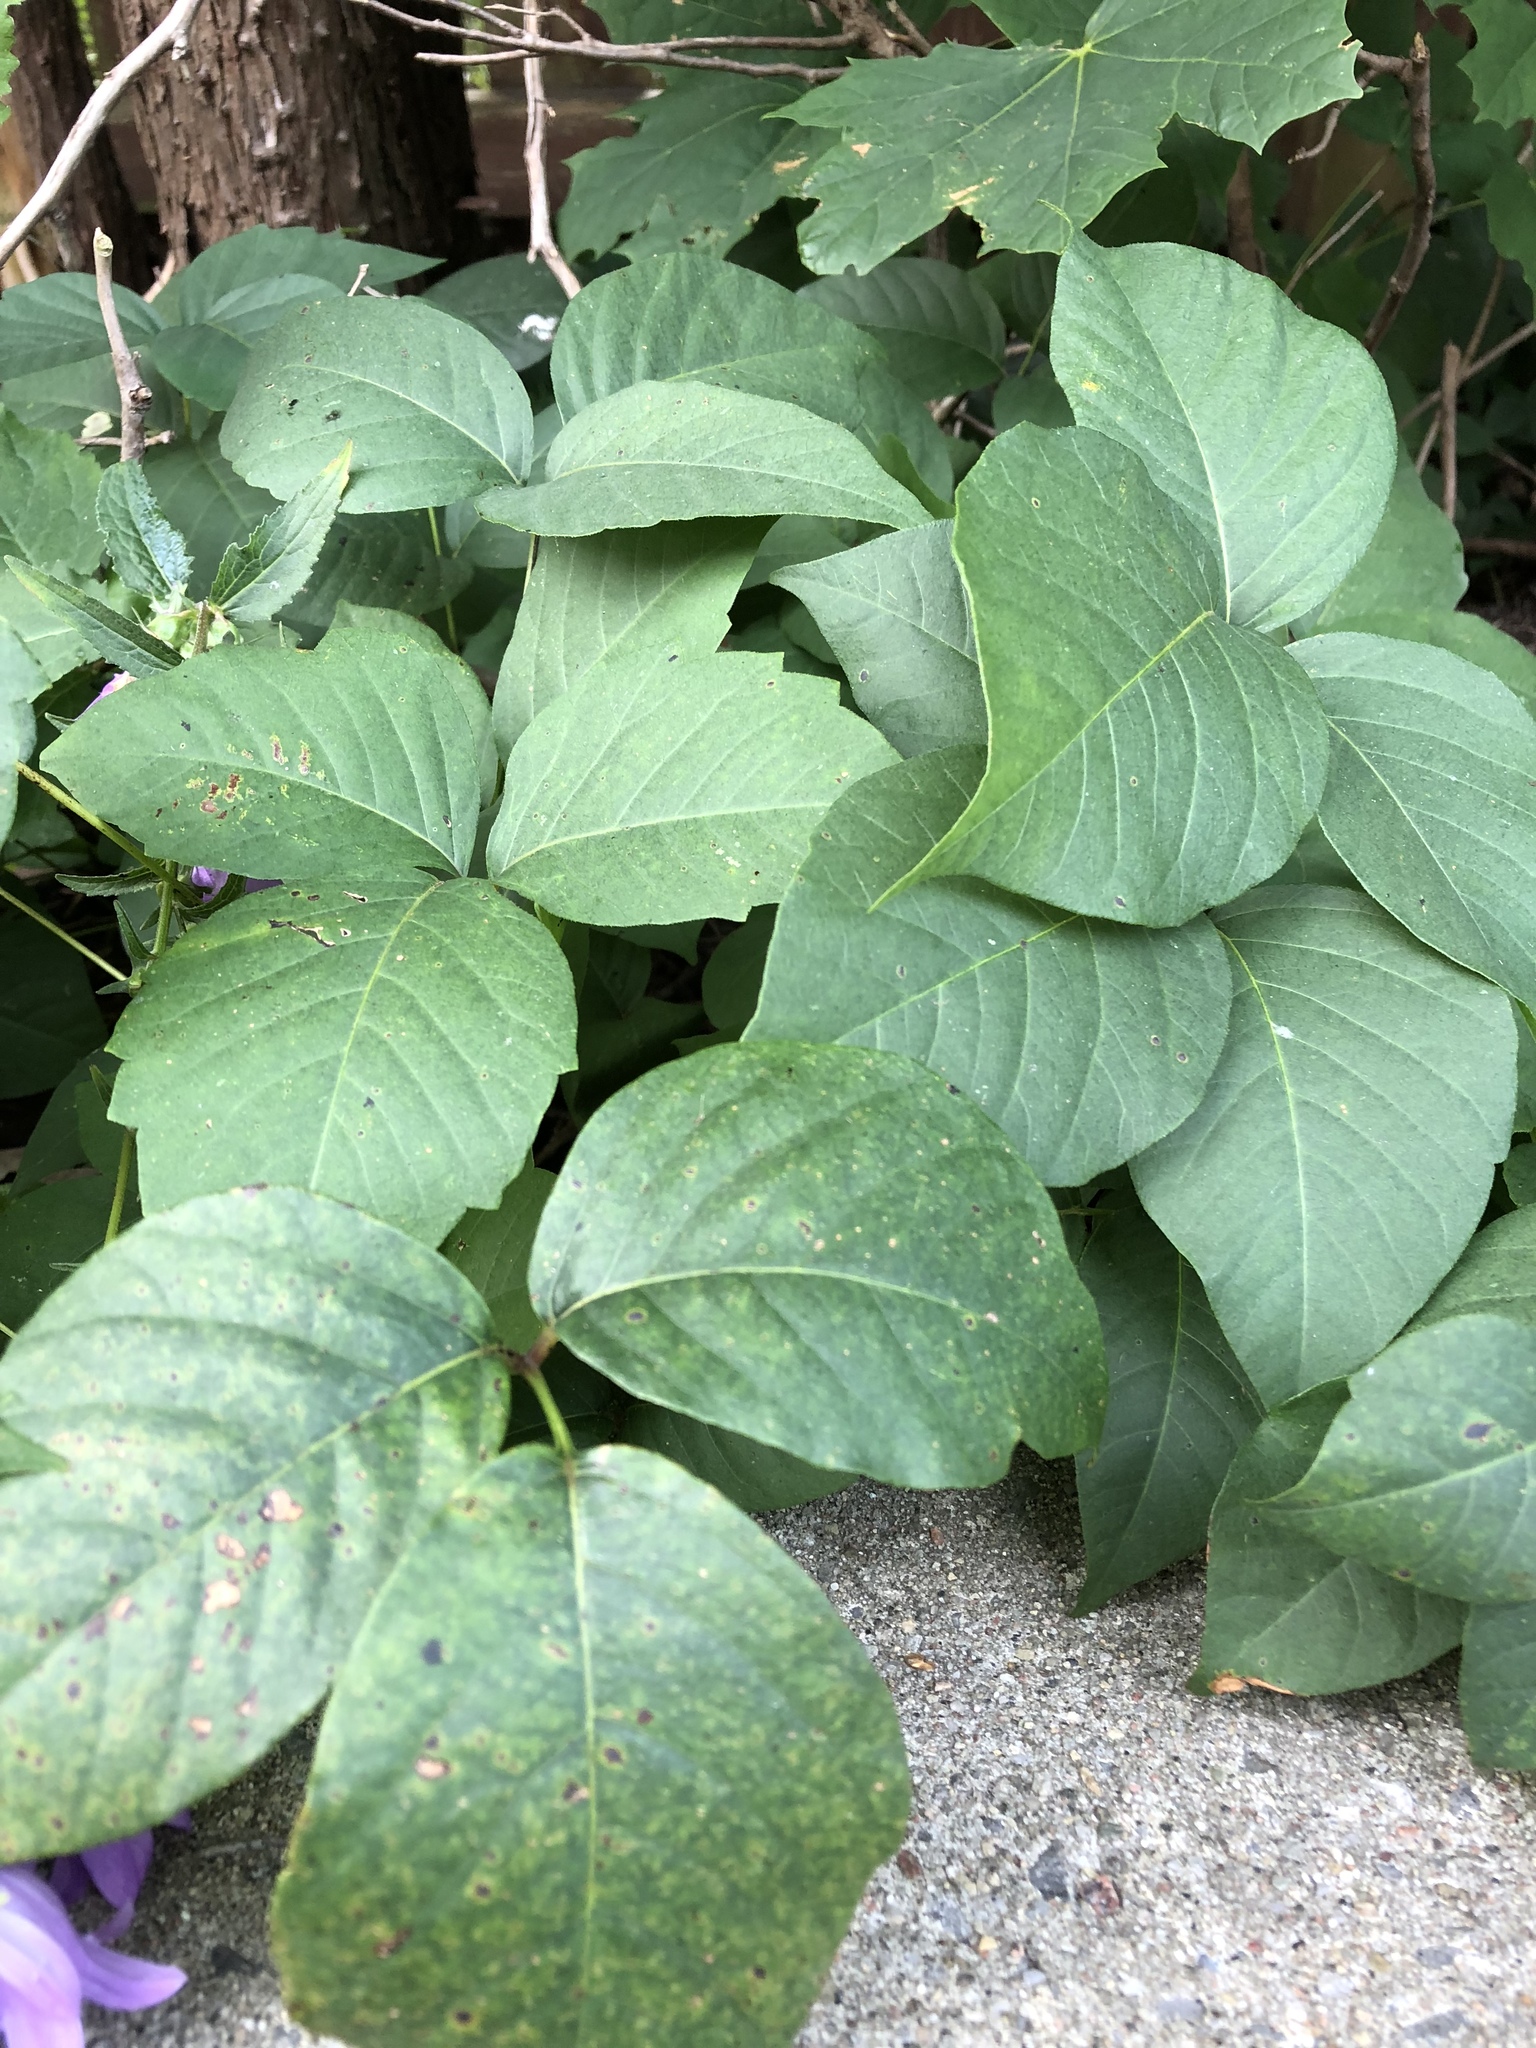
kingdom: Plantae
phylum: Tracheophyta
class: Magnoliopsida
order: Sapindales
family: Anacardiaceae
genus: Toxicodendron
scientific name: Toxicodendron rydbergii
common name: Rydberg's poison-ivy
